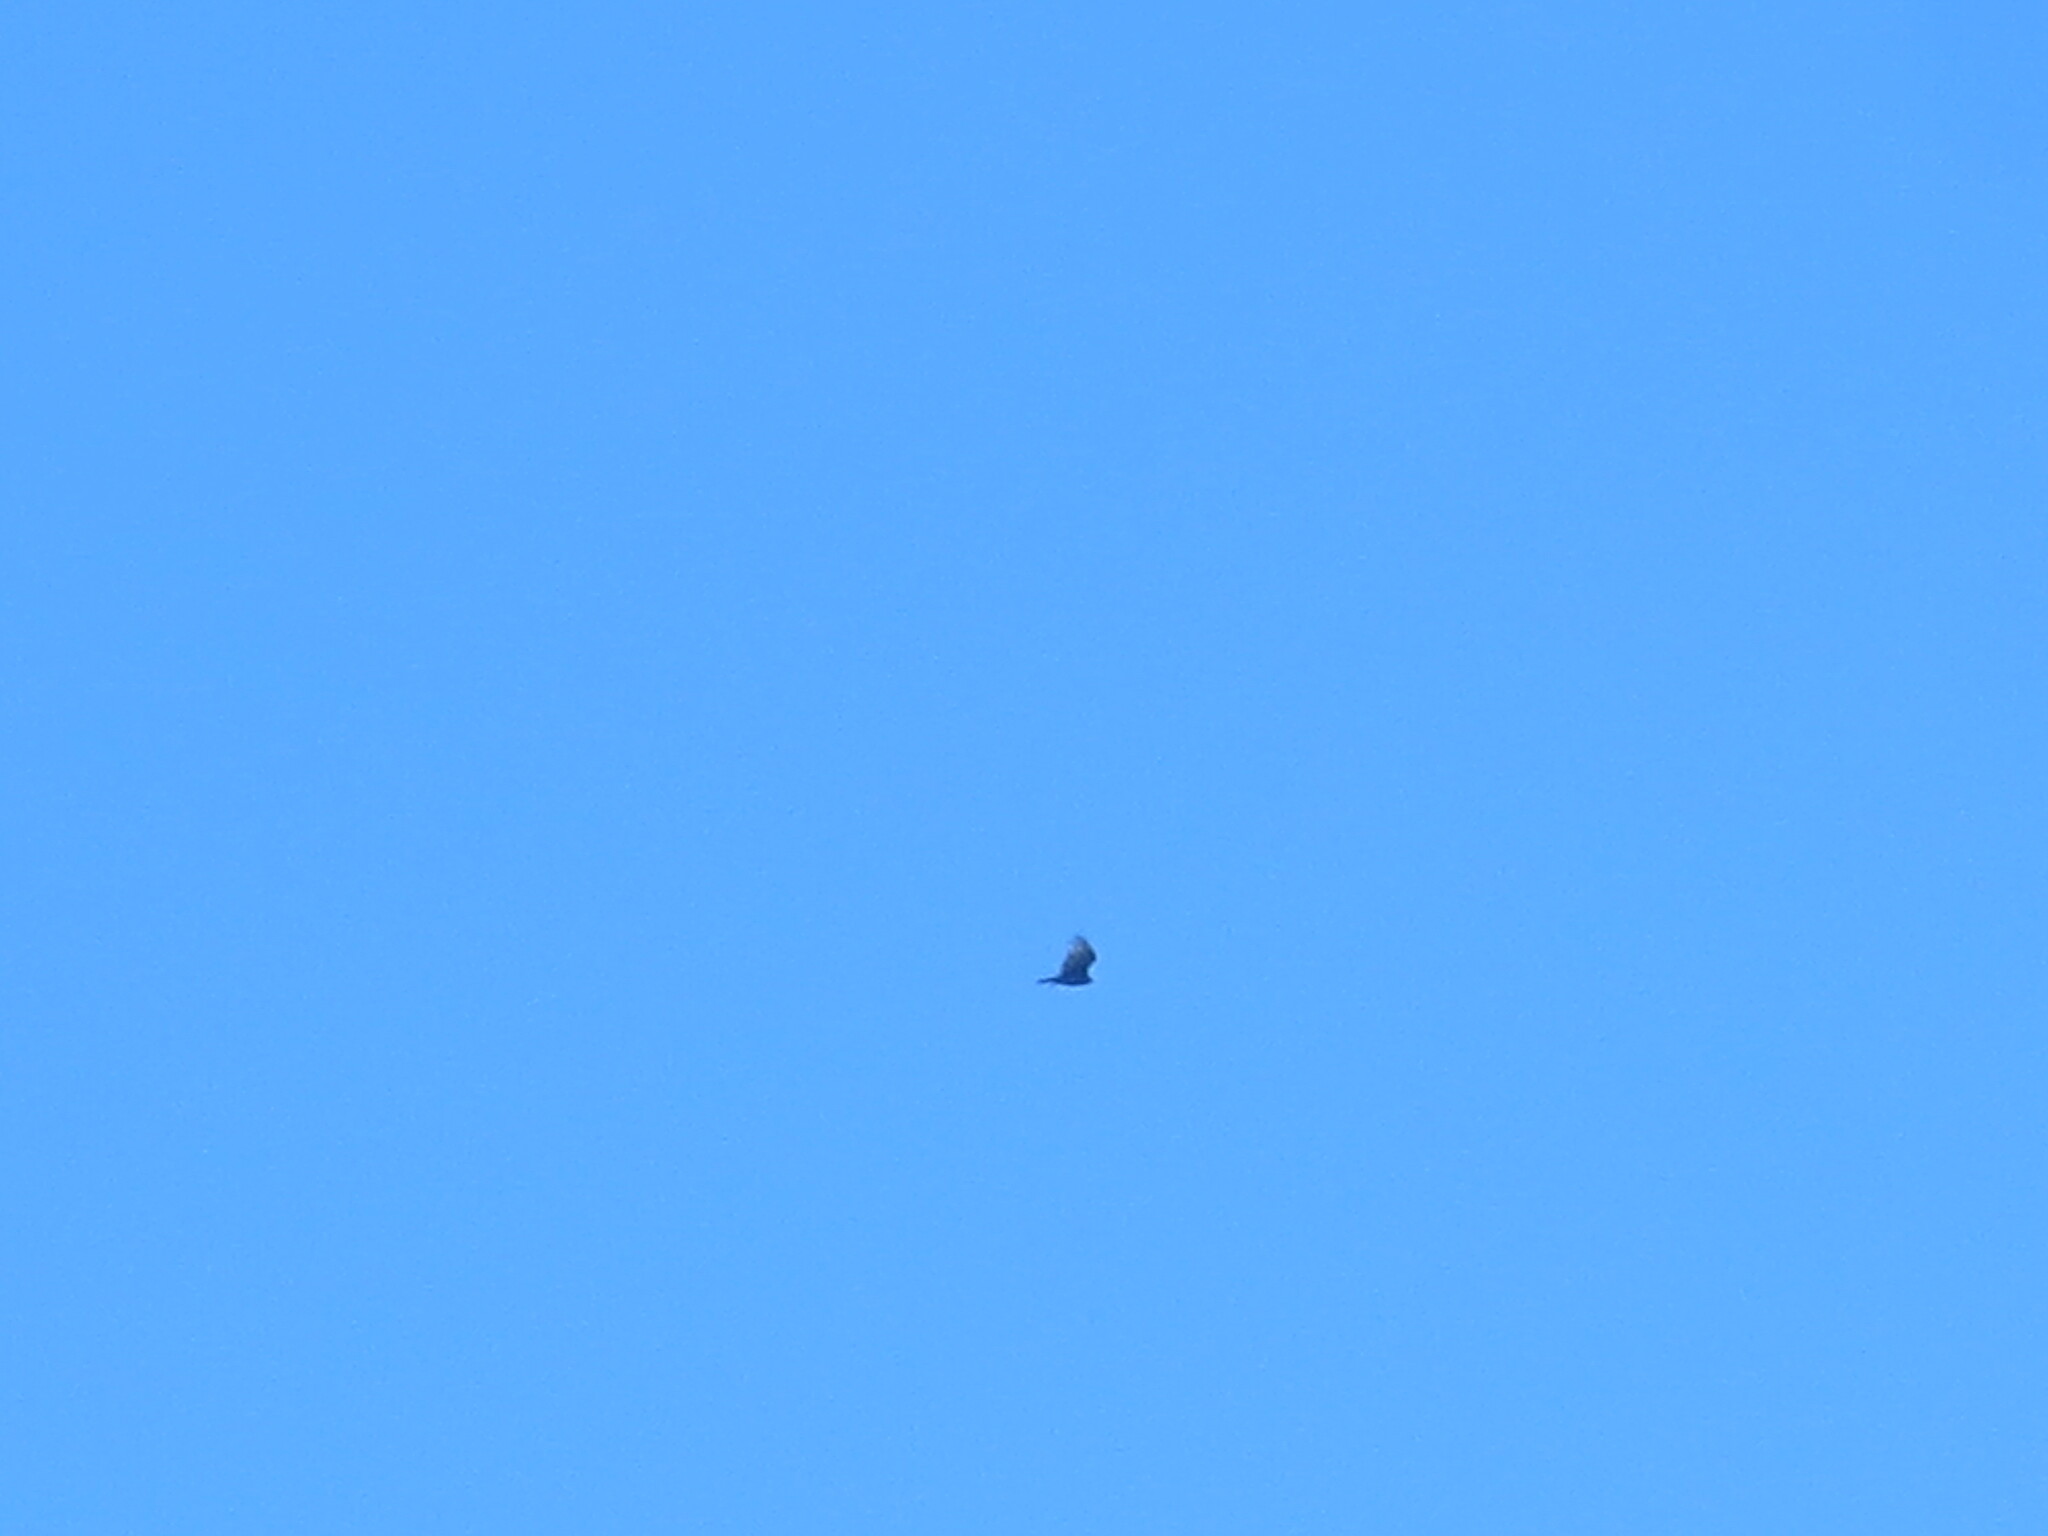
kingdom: Animalia
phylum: Chordata
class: Aves
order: Accipitriformes
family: Cathartidae
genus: Cathartes
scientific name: Cathartes aura
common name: Turkey vulture
